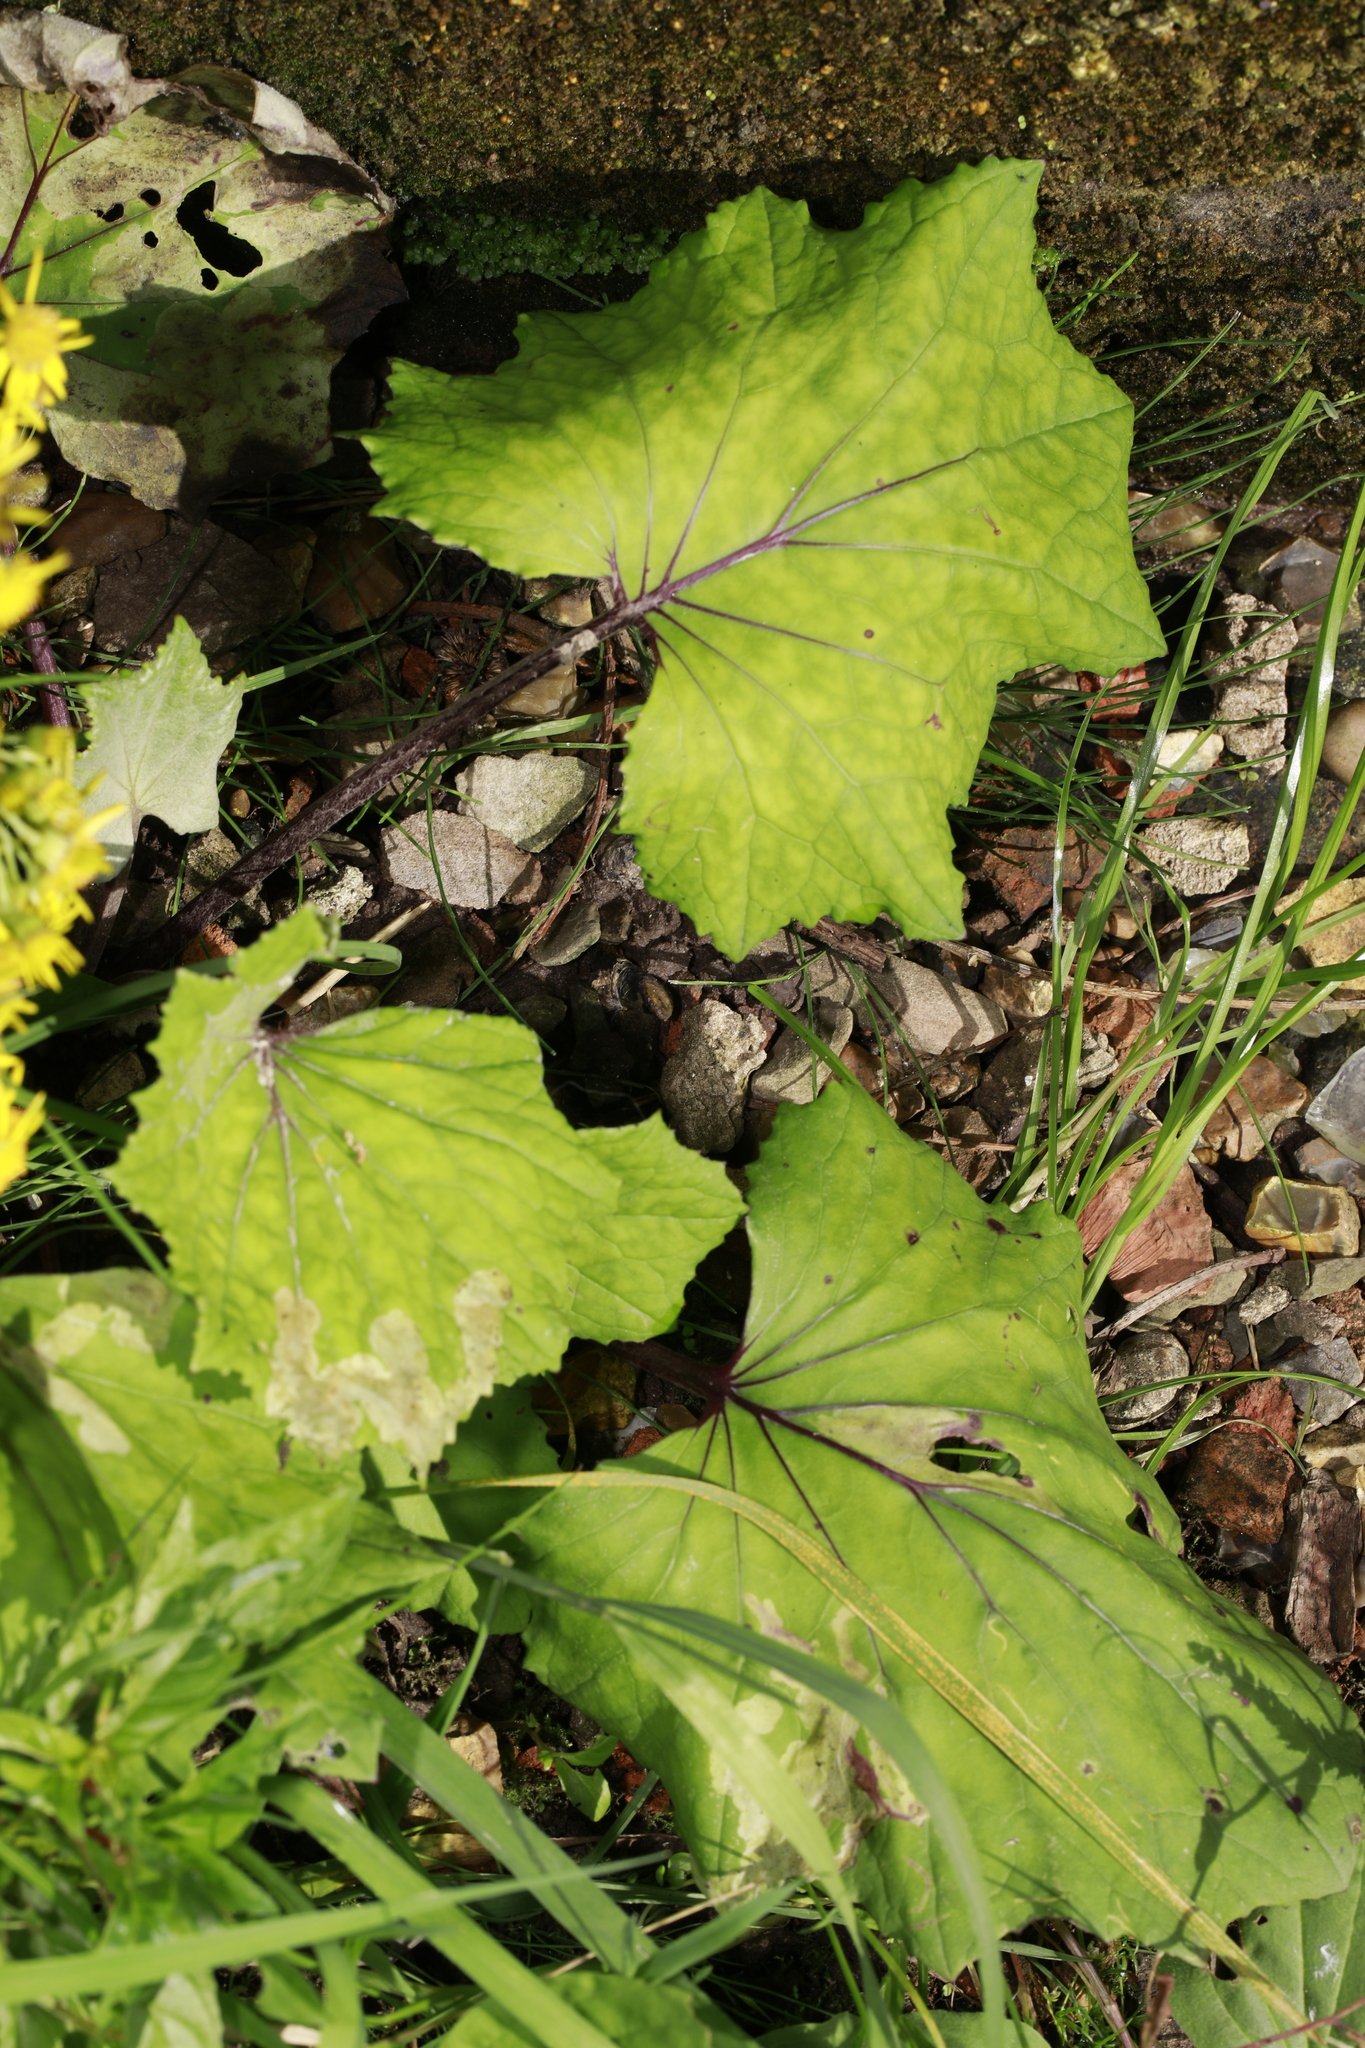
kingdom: Plantae
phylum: Tracheophyta
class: Magnoliopsida
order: Asterales
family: Asteraceae
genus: Tussilago
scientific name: Tussilago farfara
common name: Coltsfoot
